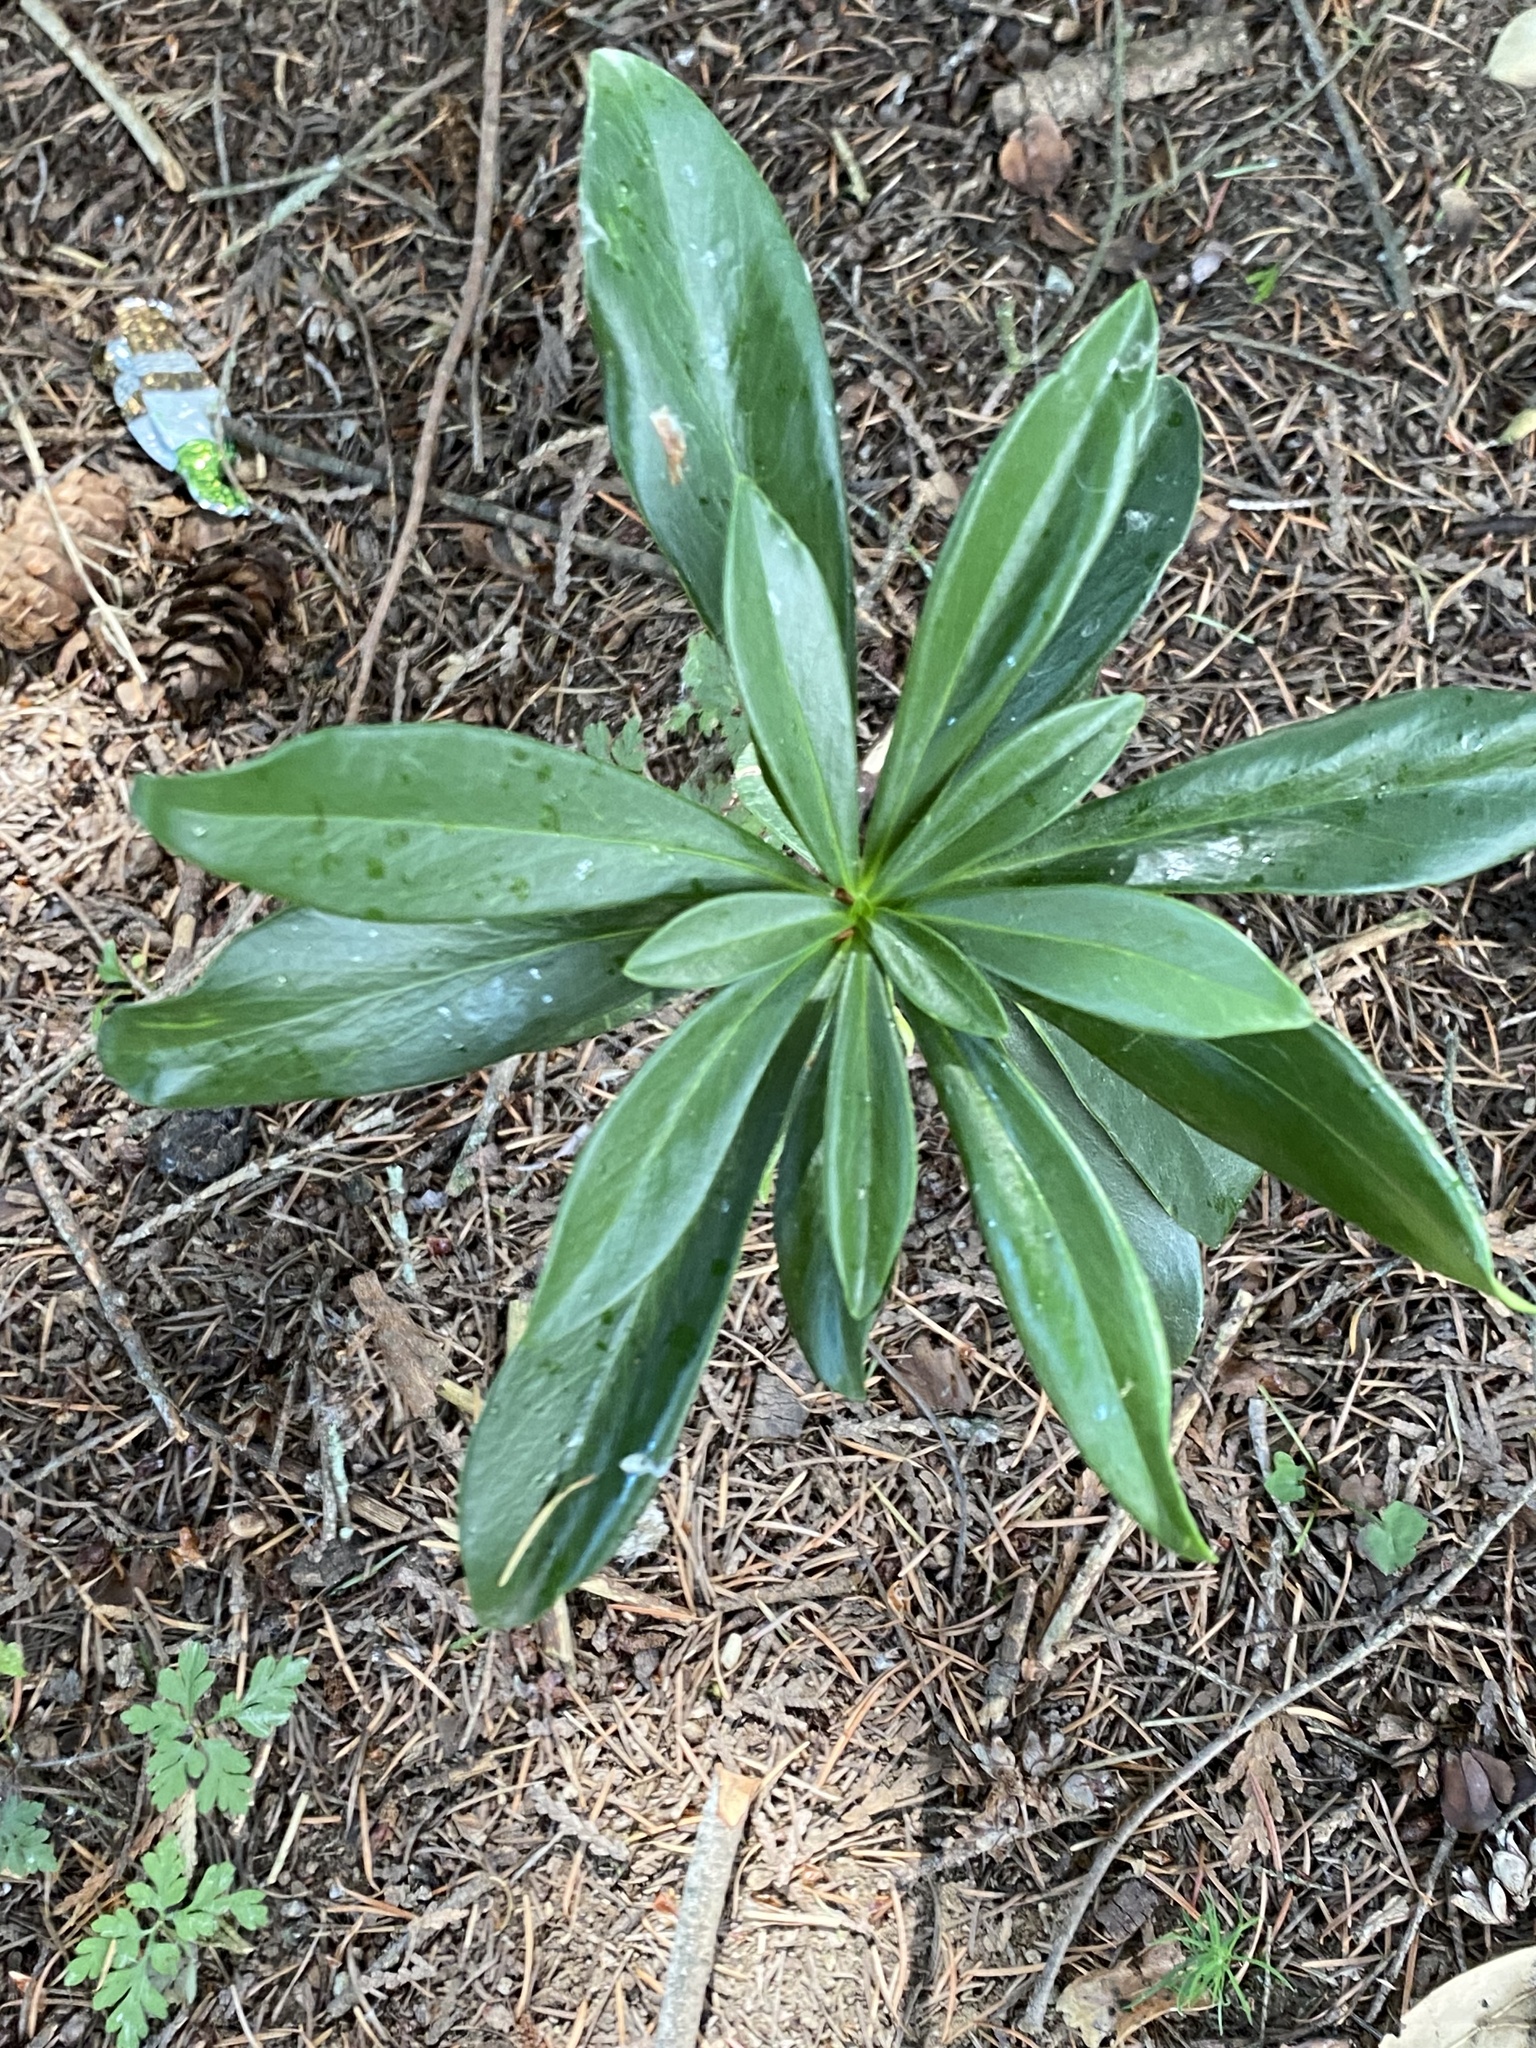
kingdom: Plantae
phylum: Tracheophyta
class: Magnoliopsida
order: Malvales
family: Thymelaeaceae
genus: Daphne
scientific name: Daphne laureola
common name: Spurge-laurel
